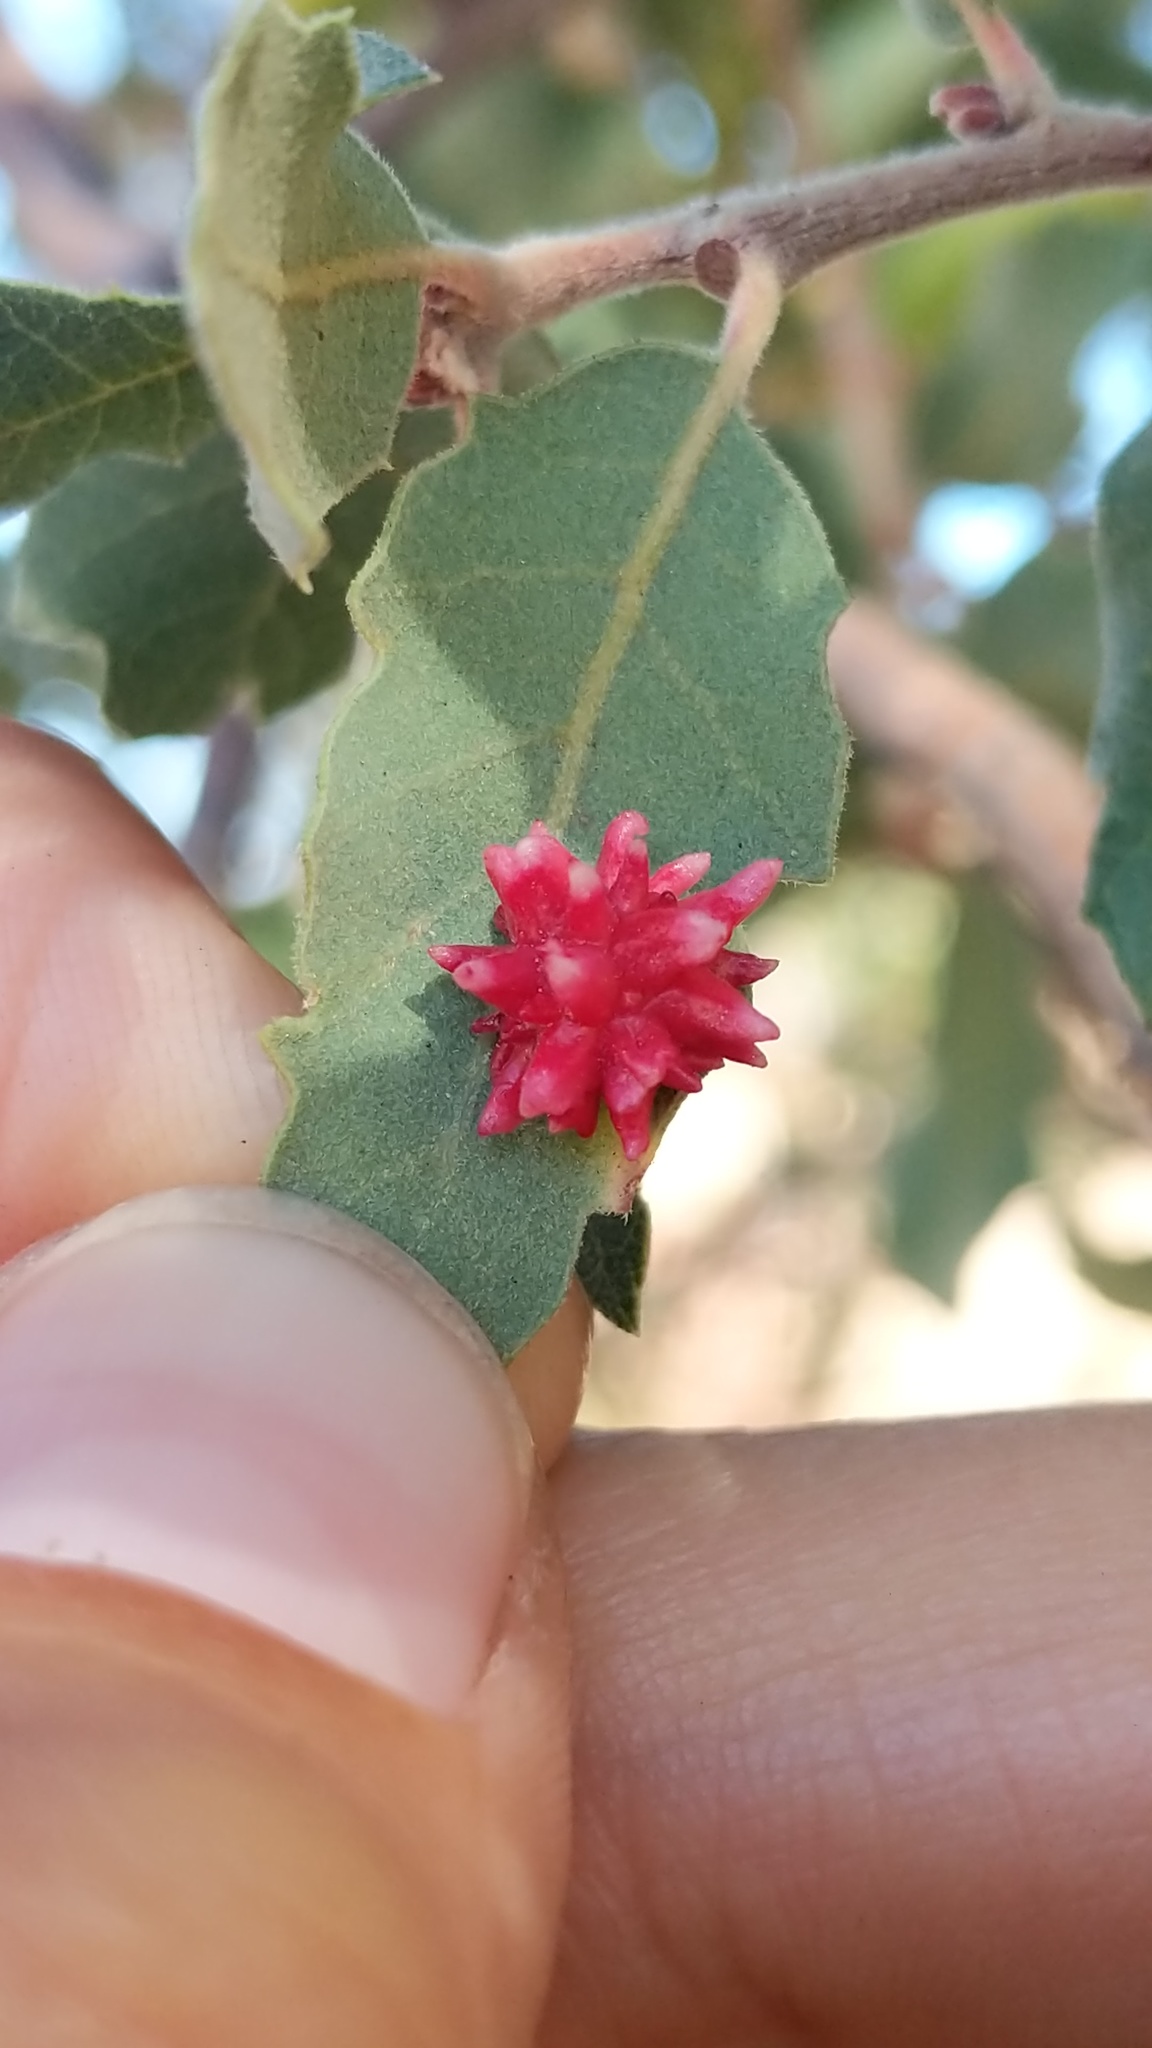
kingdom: Animalia
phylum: Arthropoda
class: Insecta
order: Hymenoptera
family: Cynipidae
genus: Cynips
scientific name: Cynips
